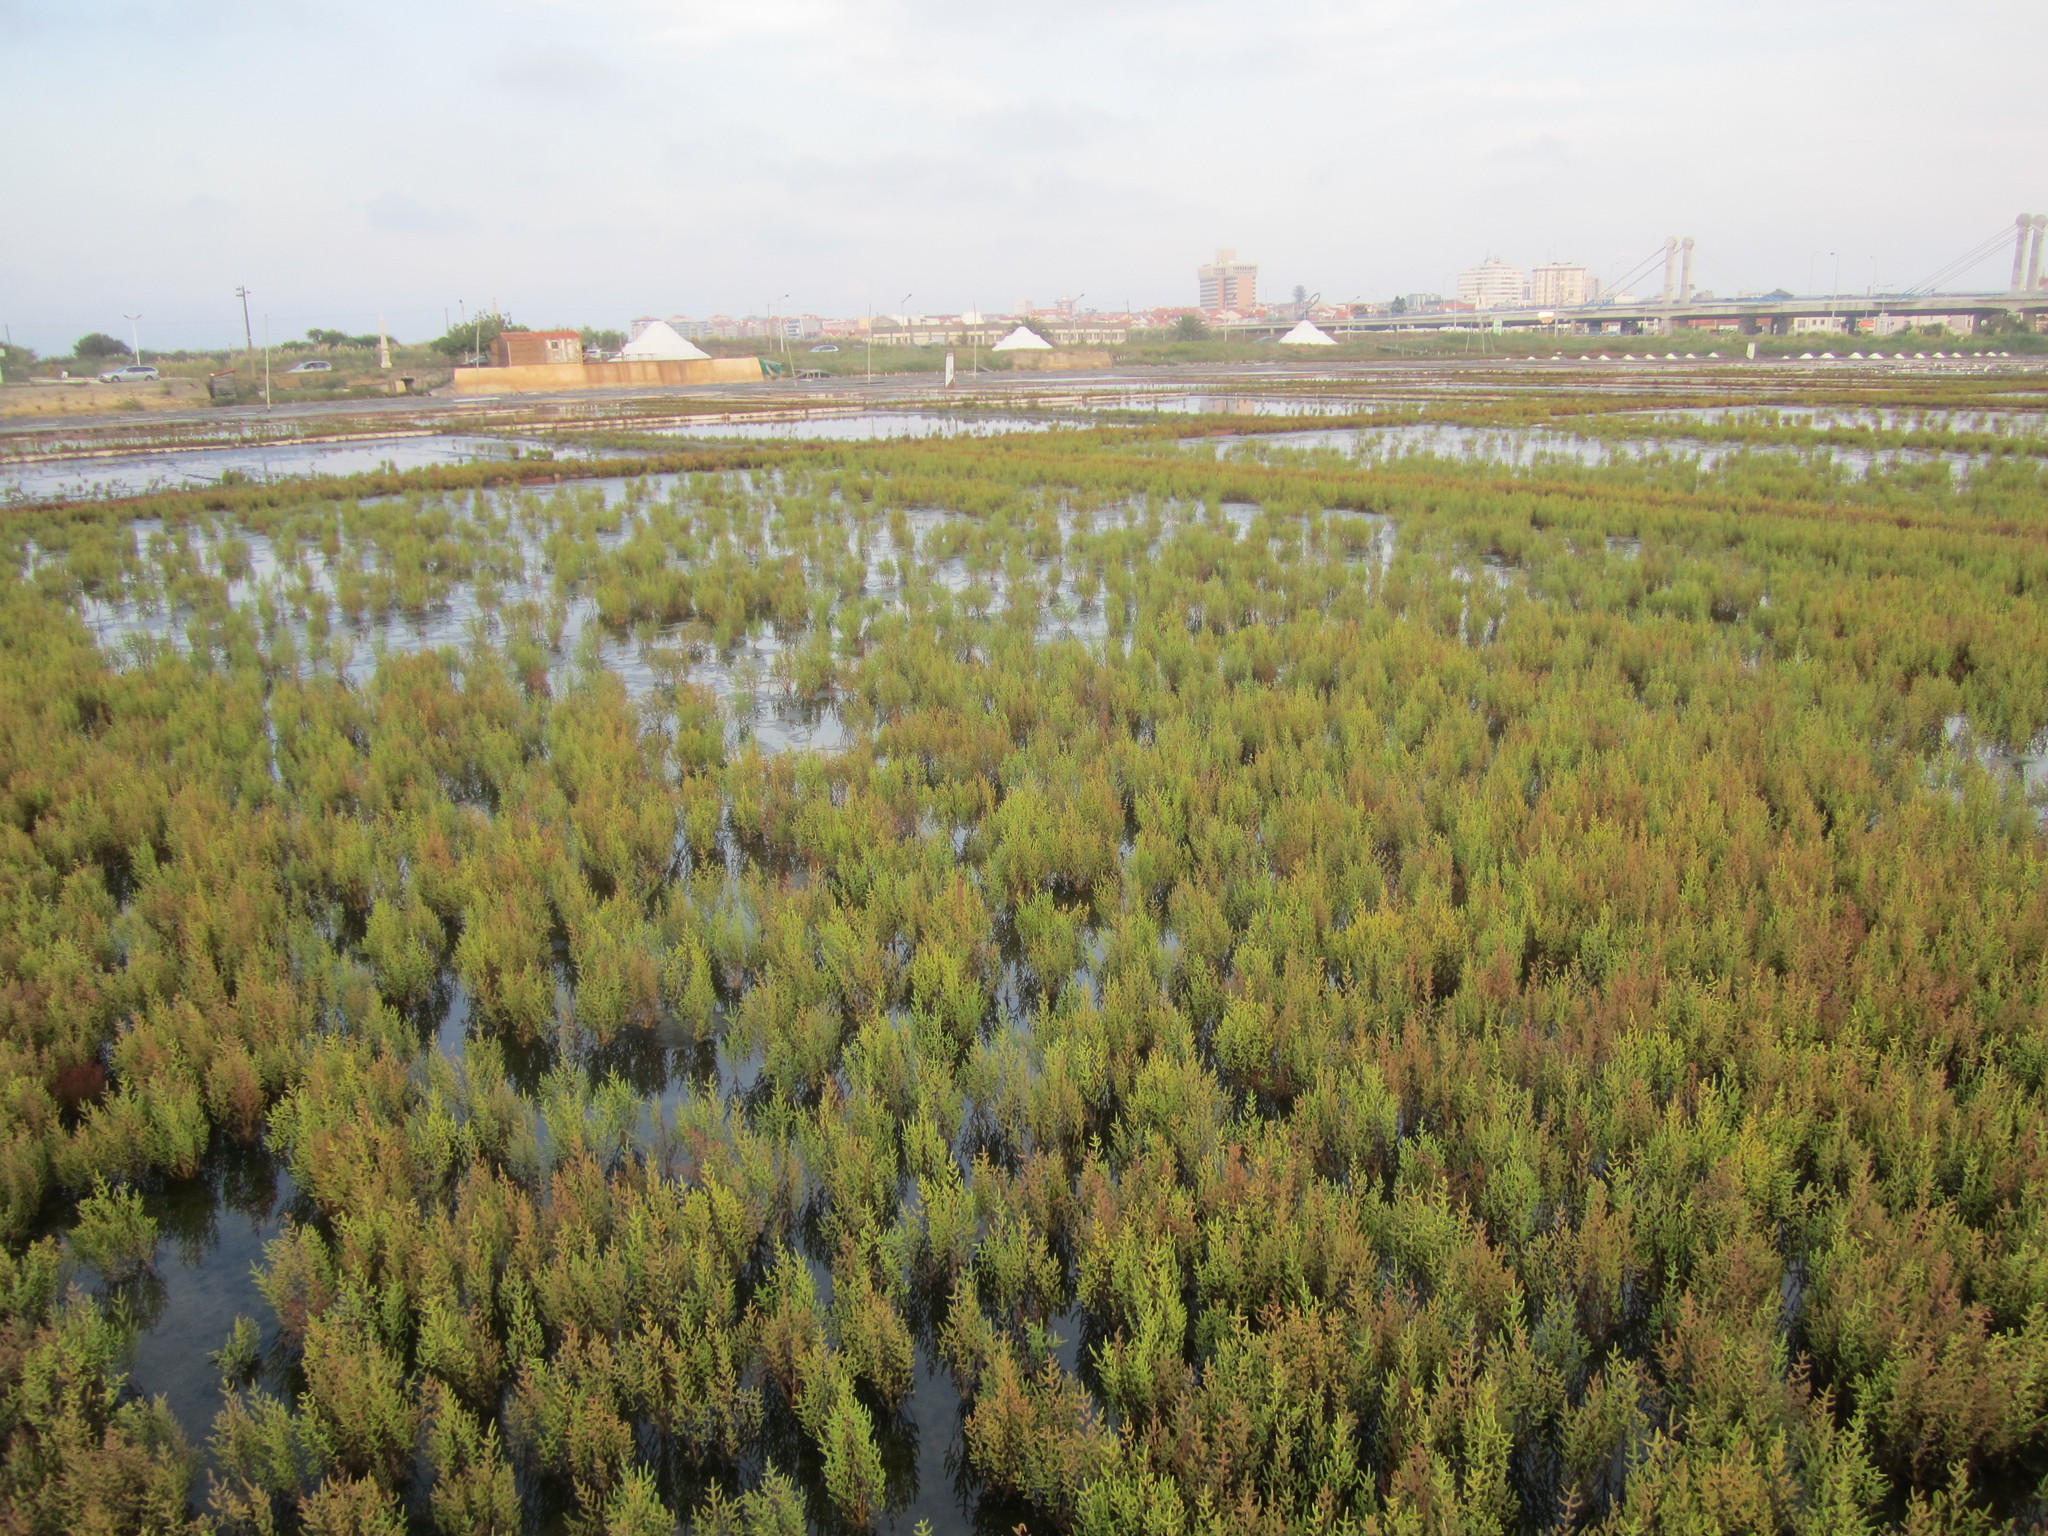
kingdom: Plantae
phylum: Tracheophyta
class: Magnoliopsida
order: Caryophyllales
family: Amaranthaceae
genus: Salicornia
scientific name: Salicornia
